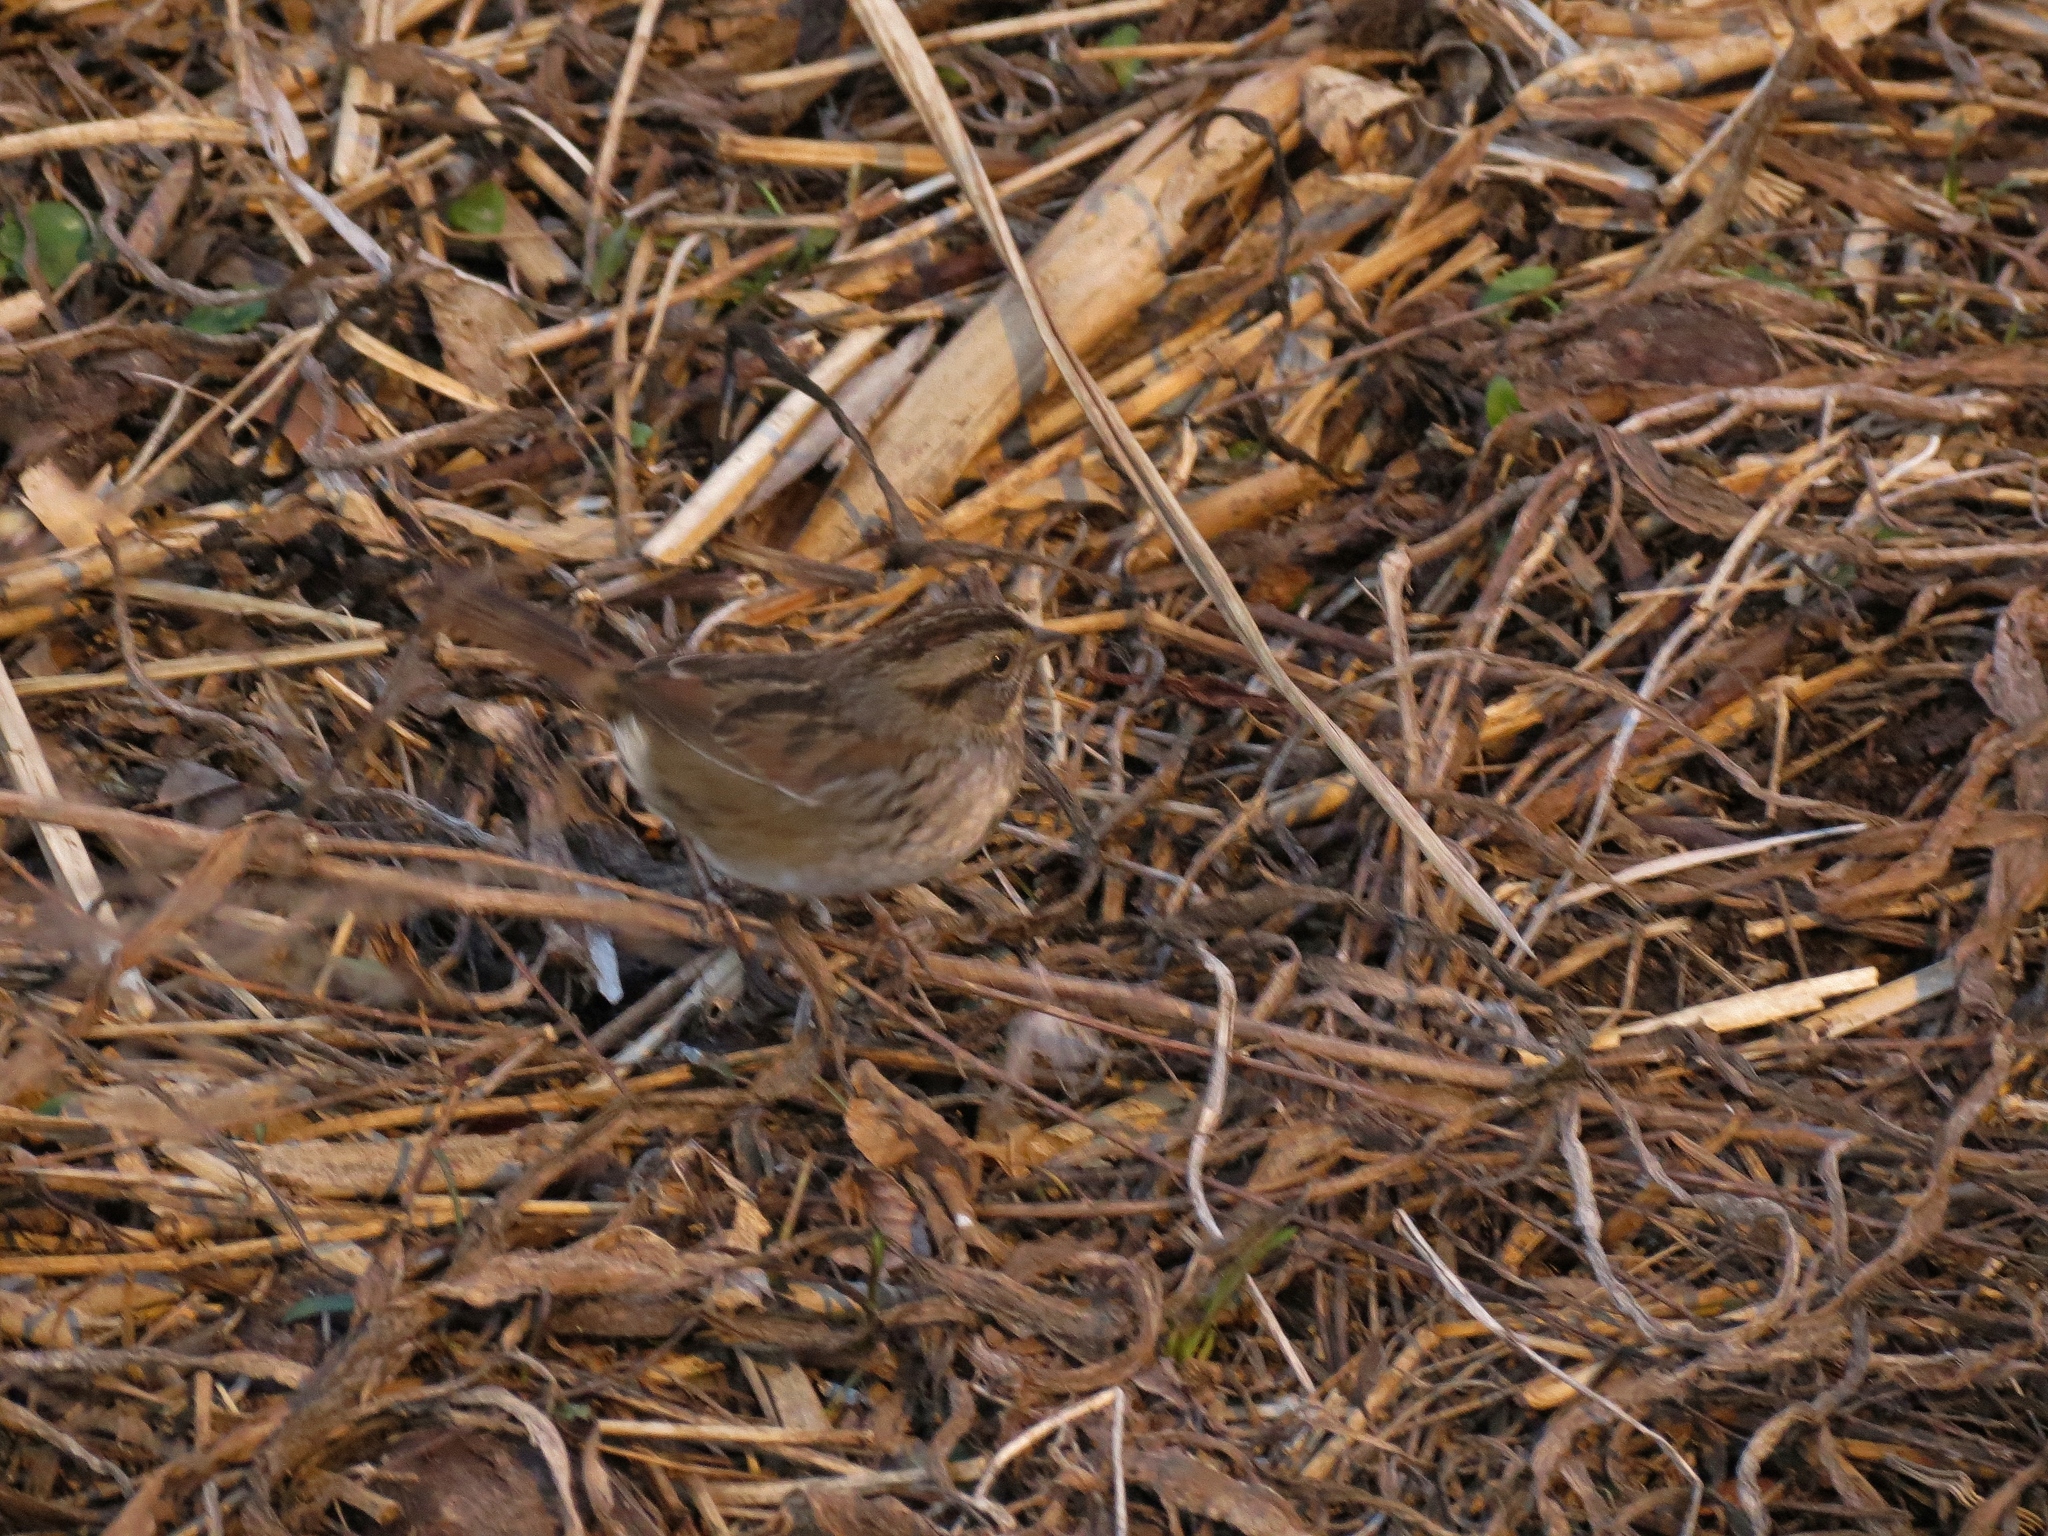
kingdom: Animalia
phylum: Chordata
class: Aves
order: Passeriformes
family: Passerellidae
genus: Melospiza
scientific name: Melospiza georgiana
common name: Swamp sparrow
